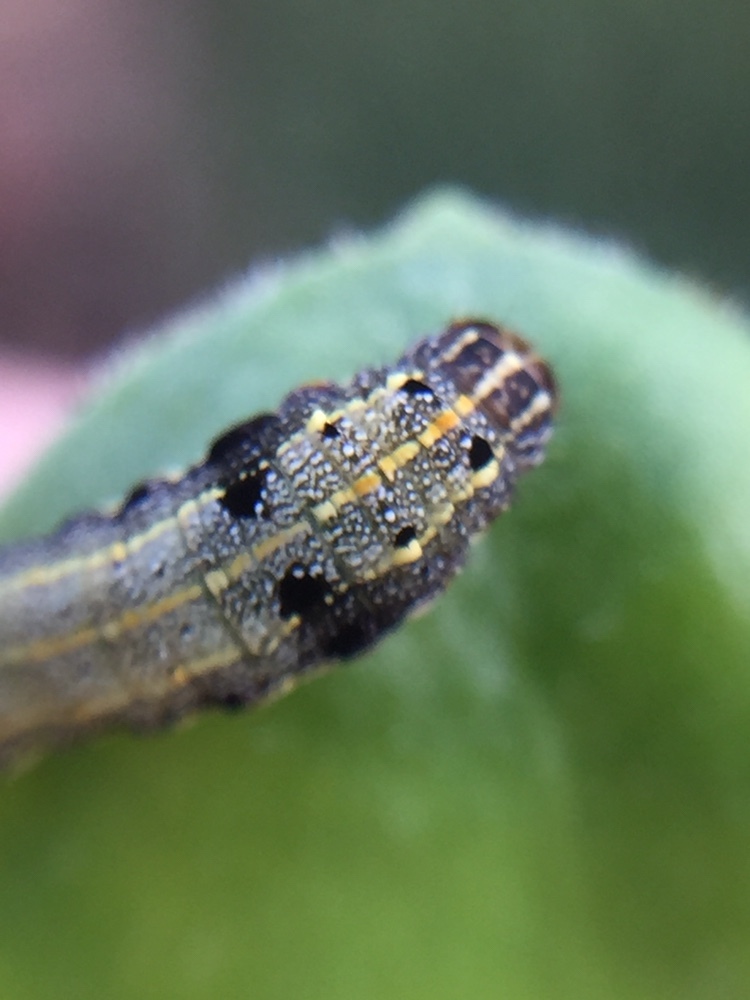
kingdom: Animalia
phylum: Arthropoda
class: Insecta
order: Lepidoptera
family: Noctuidae
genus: Spodoptera
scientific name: Spodoptera litura
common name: Asian cotton leafworm
